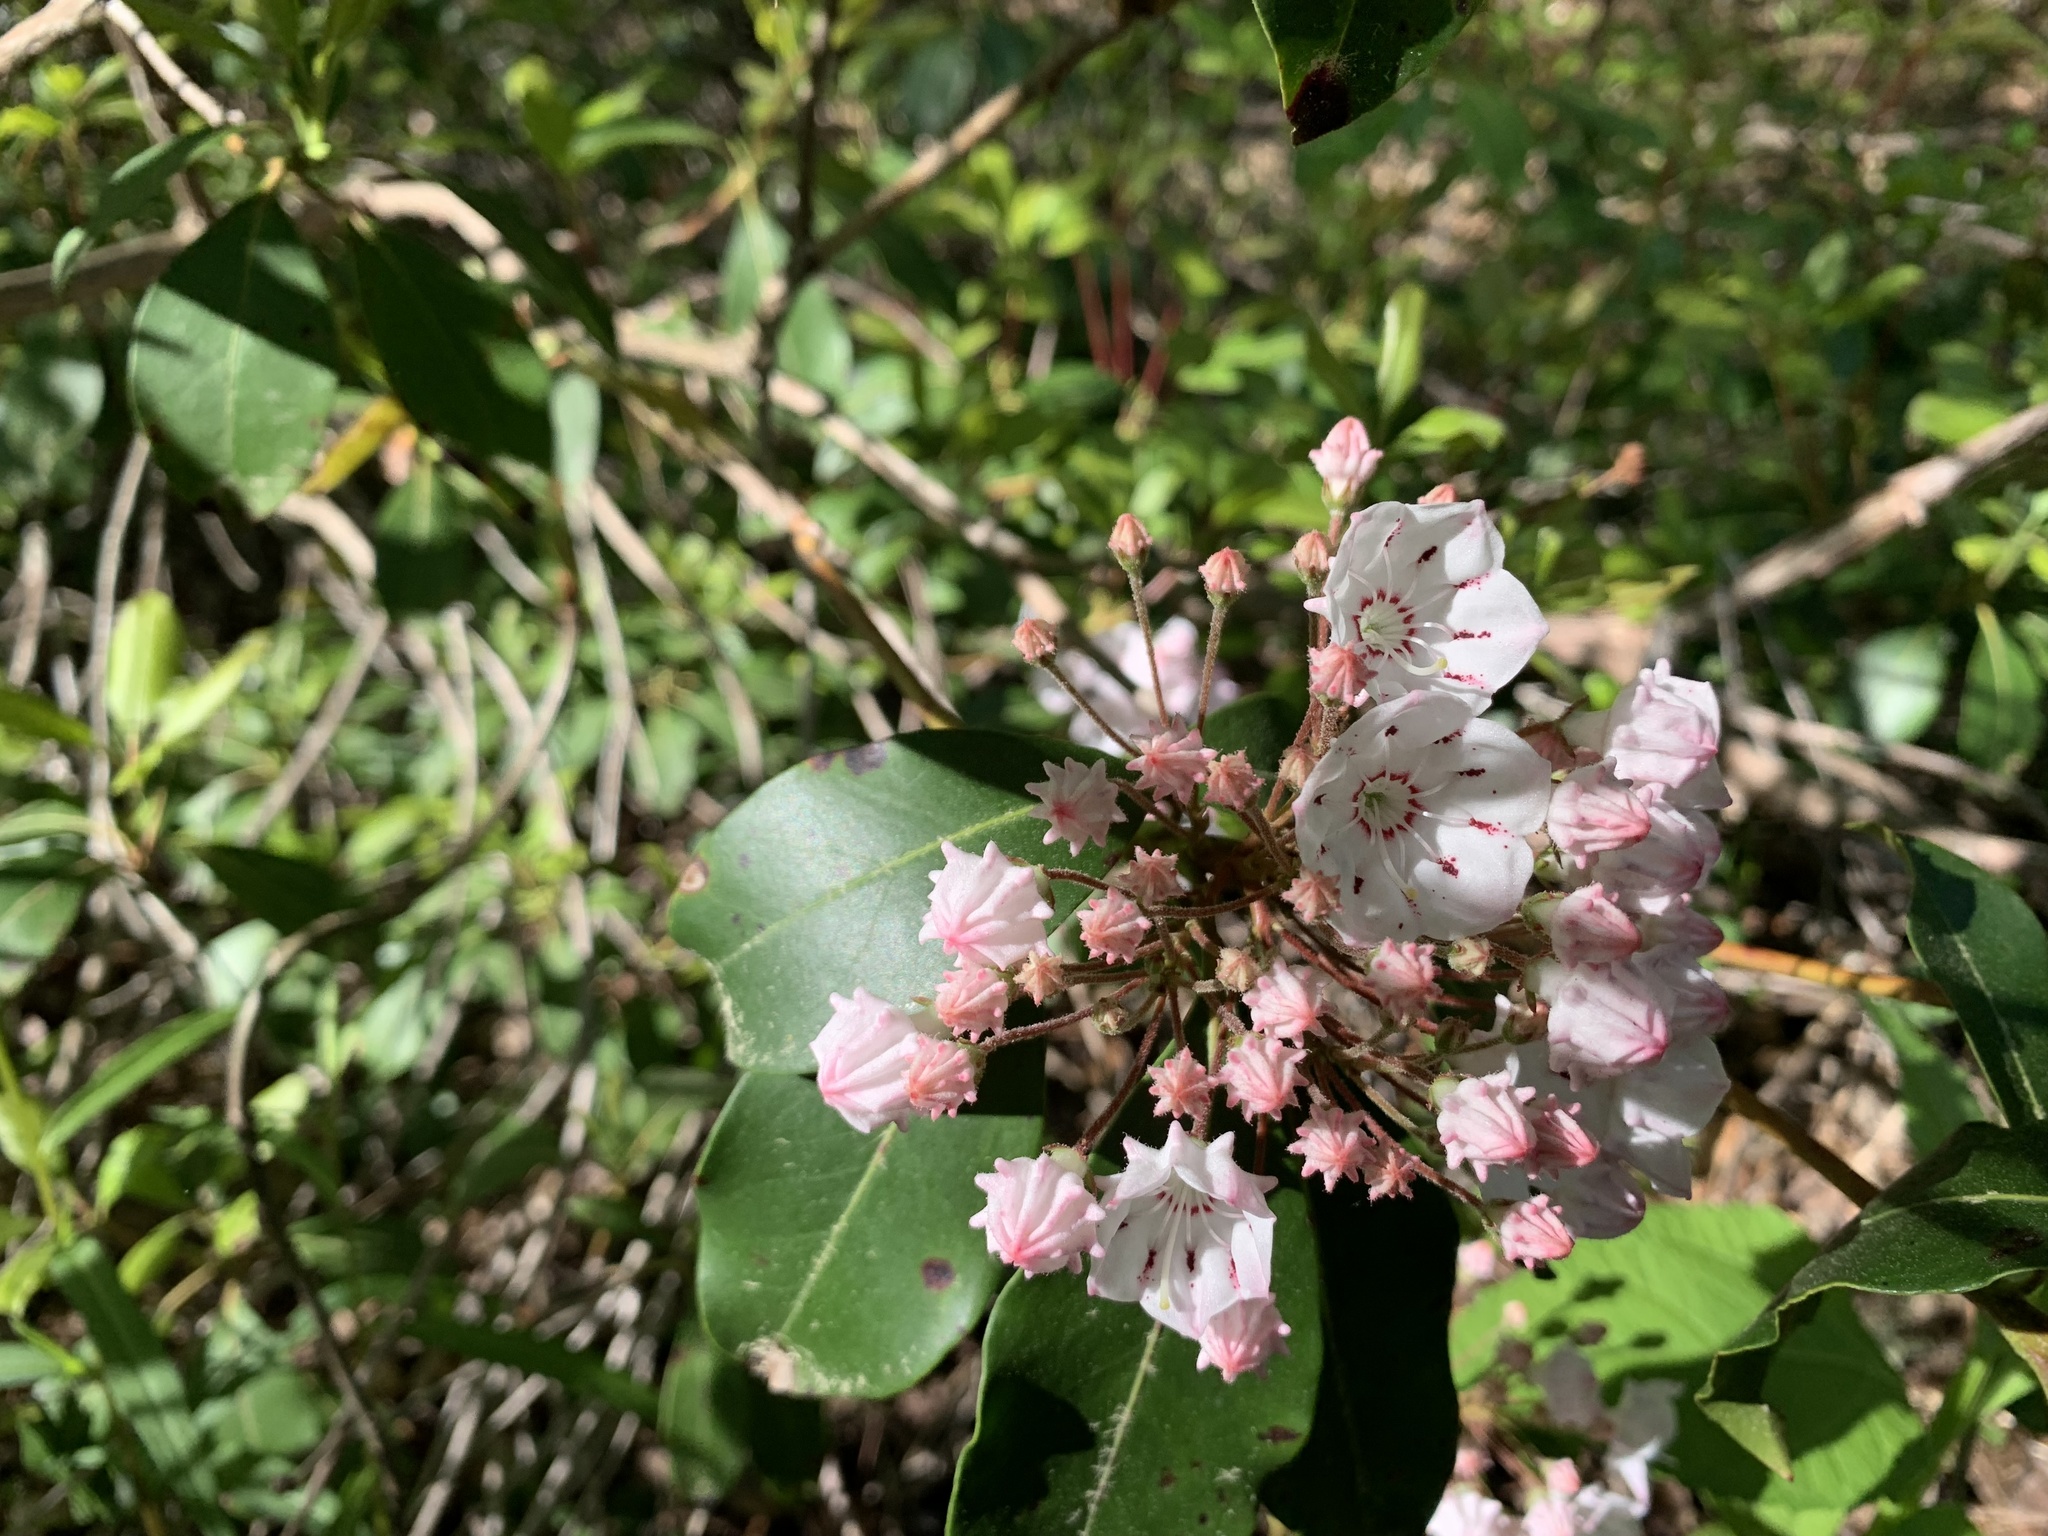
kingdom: Plantae
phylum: Tracheophyta
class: Magnoliopsida
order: Ericales
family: Ericaceae
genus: Kalmia
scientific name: Kalmia latifolia
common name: Mountain-laurel
